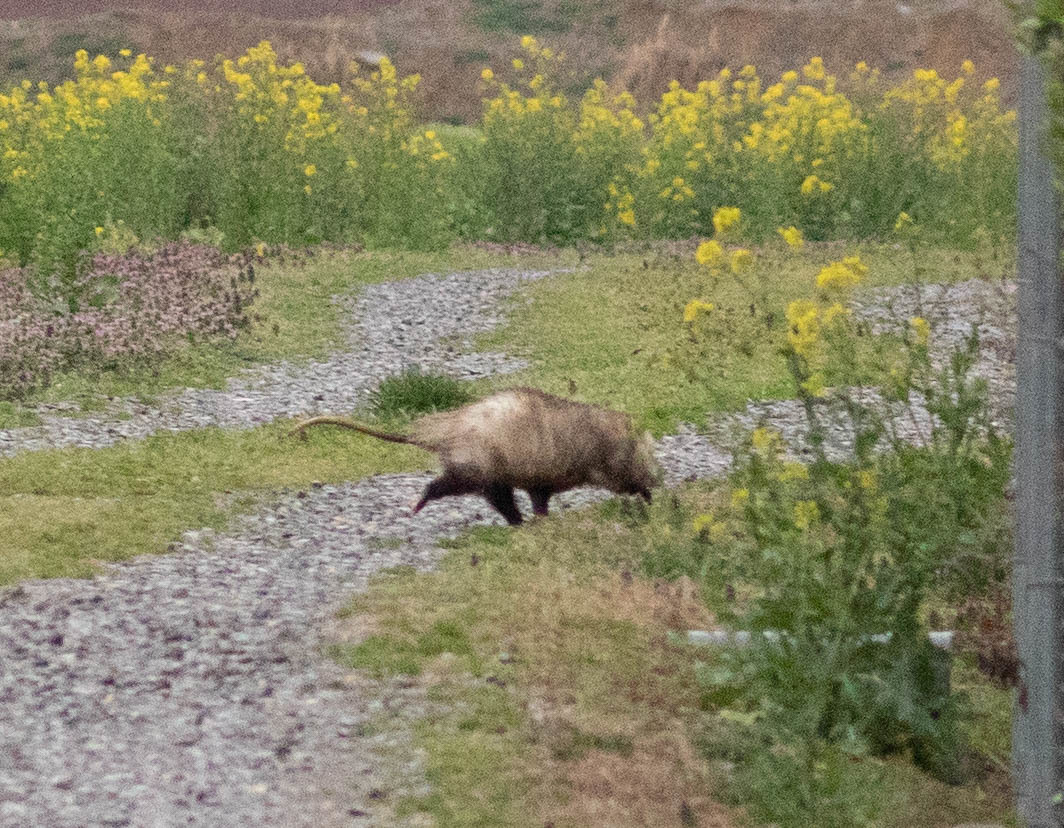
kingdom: Animalia
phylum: Chordata
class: Mammalia
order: Didelphimorphia
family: Didelphidae
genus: Didelphis
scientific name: Didelphis virginiana
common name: Virginia opossum
